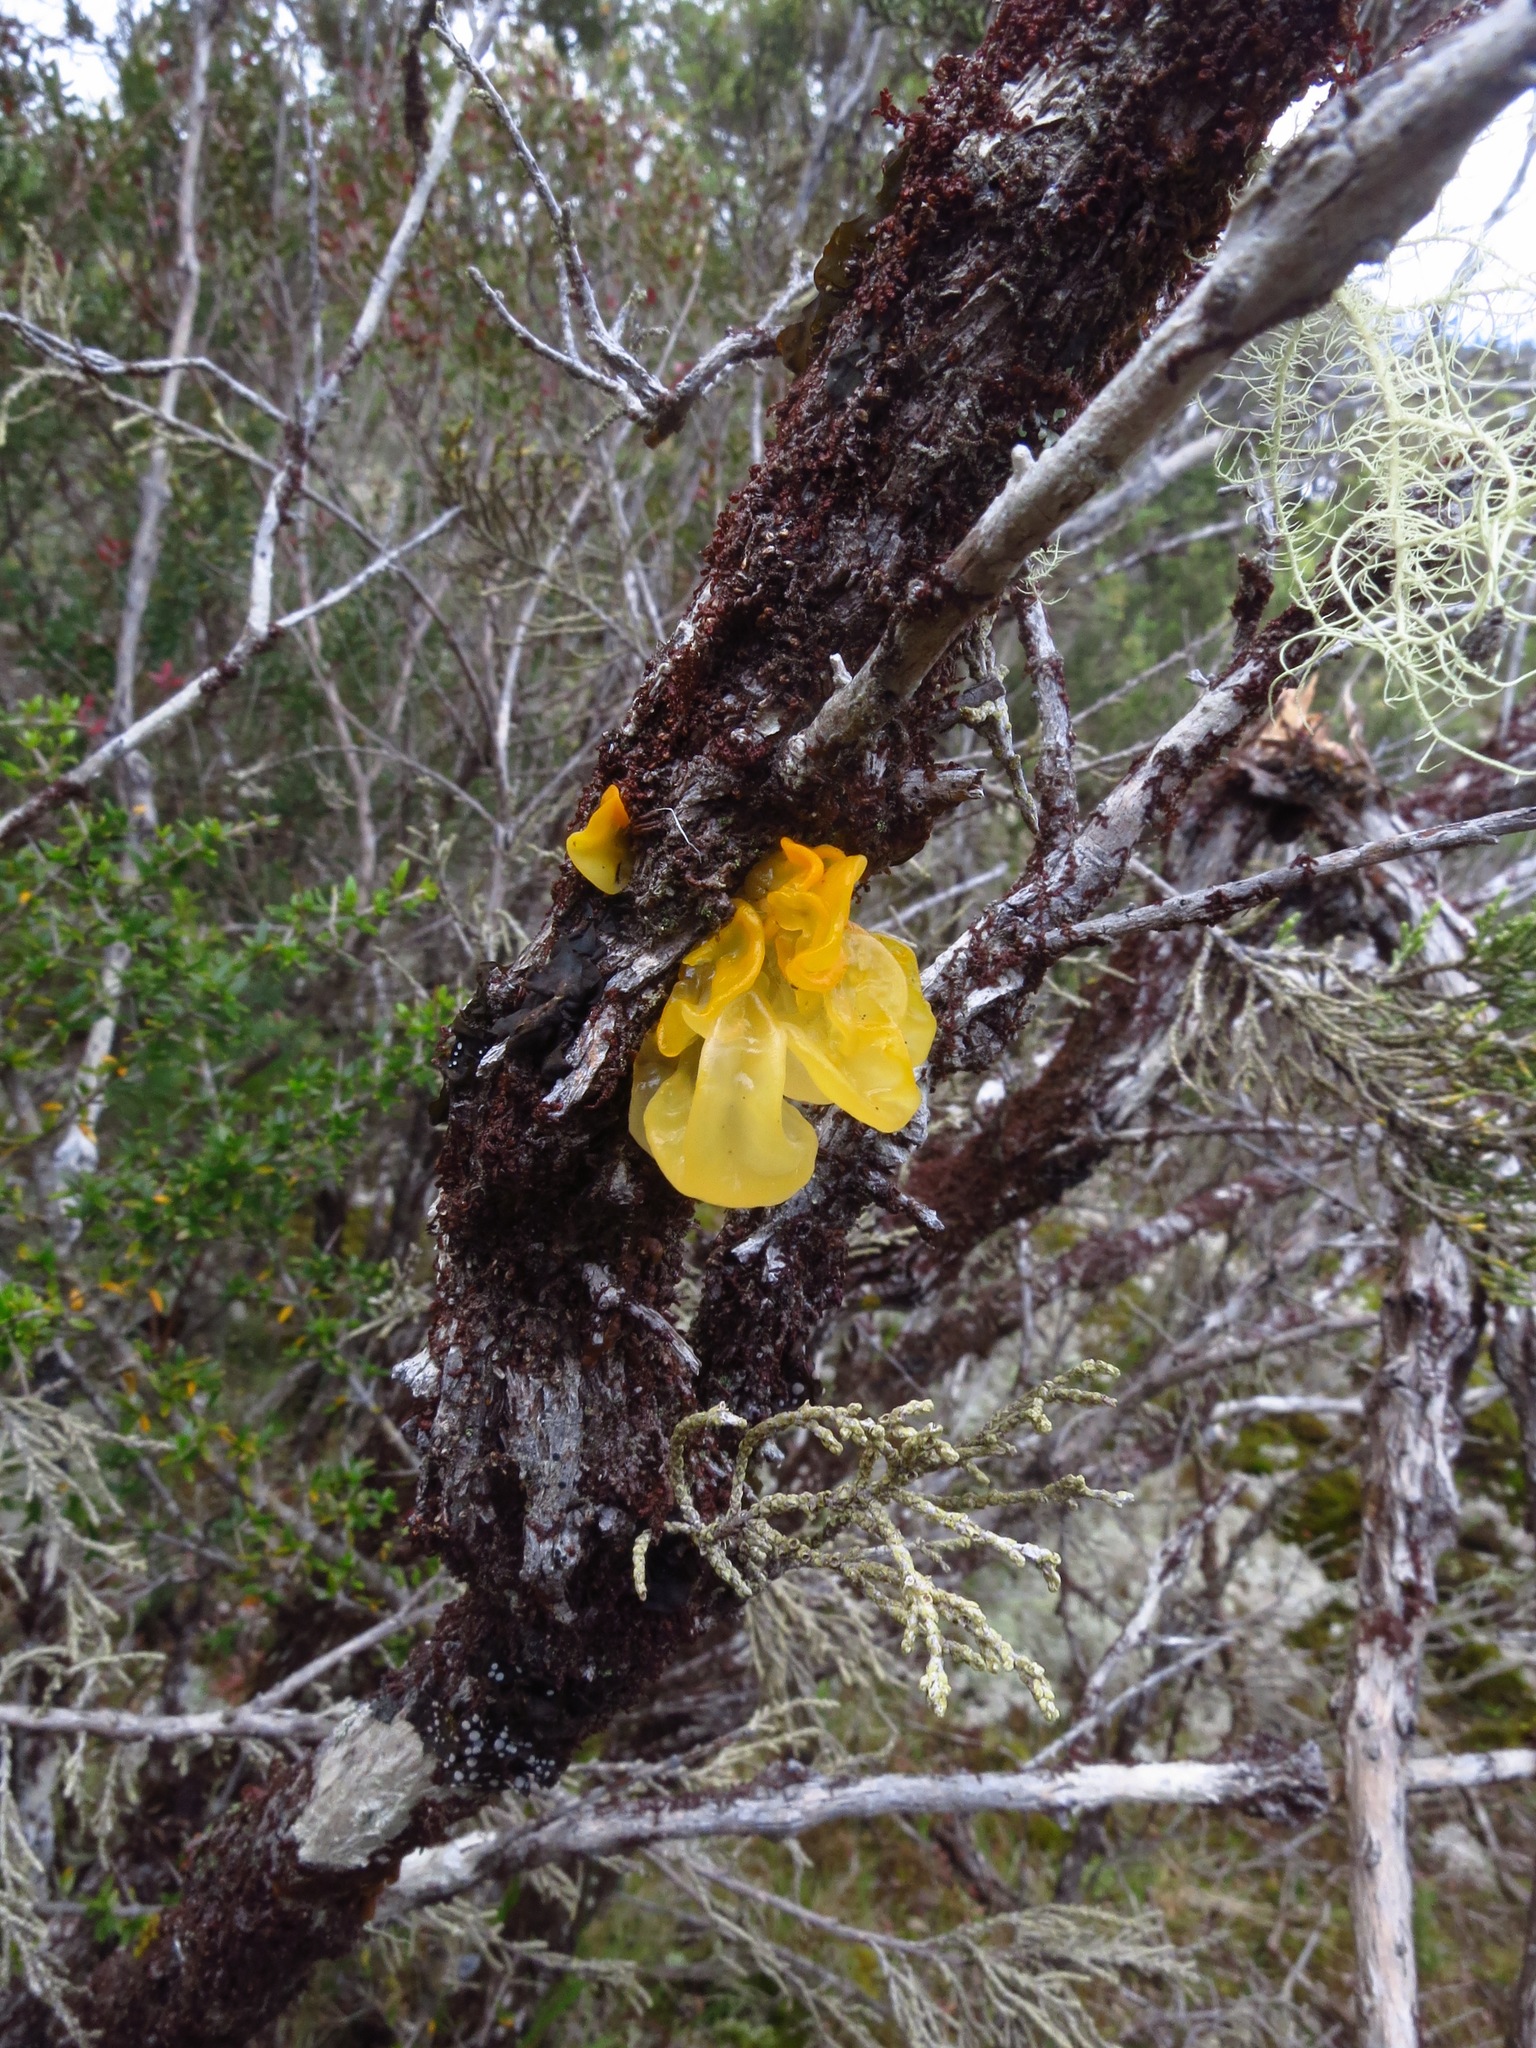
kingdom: Fungi
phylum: Basidiomycota
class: Tremellomycetes
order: Tremellales
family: Tremellaceae
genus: Tremella
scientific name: Tremella mesenterica
